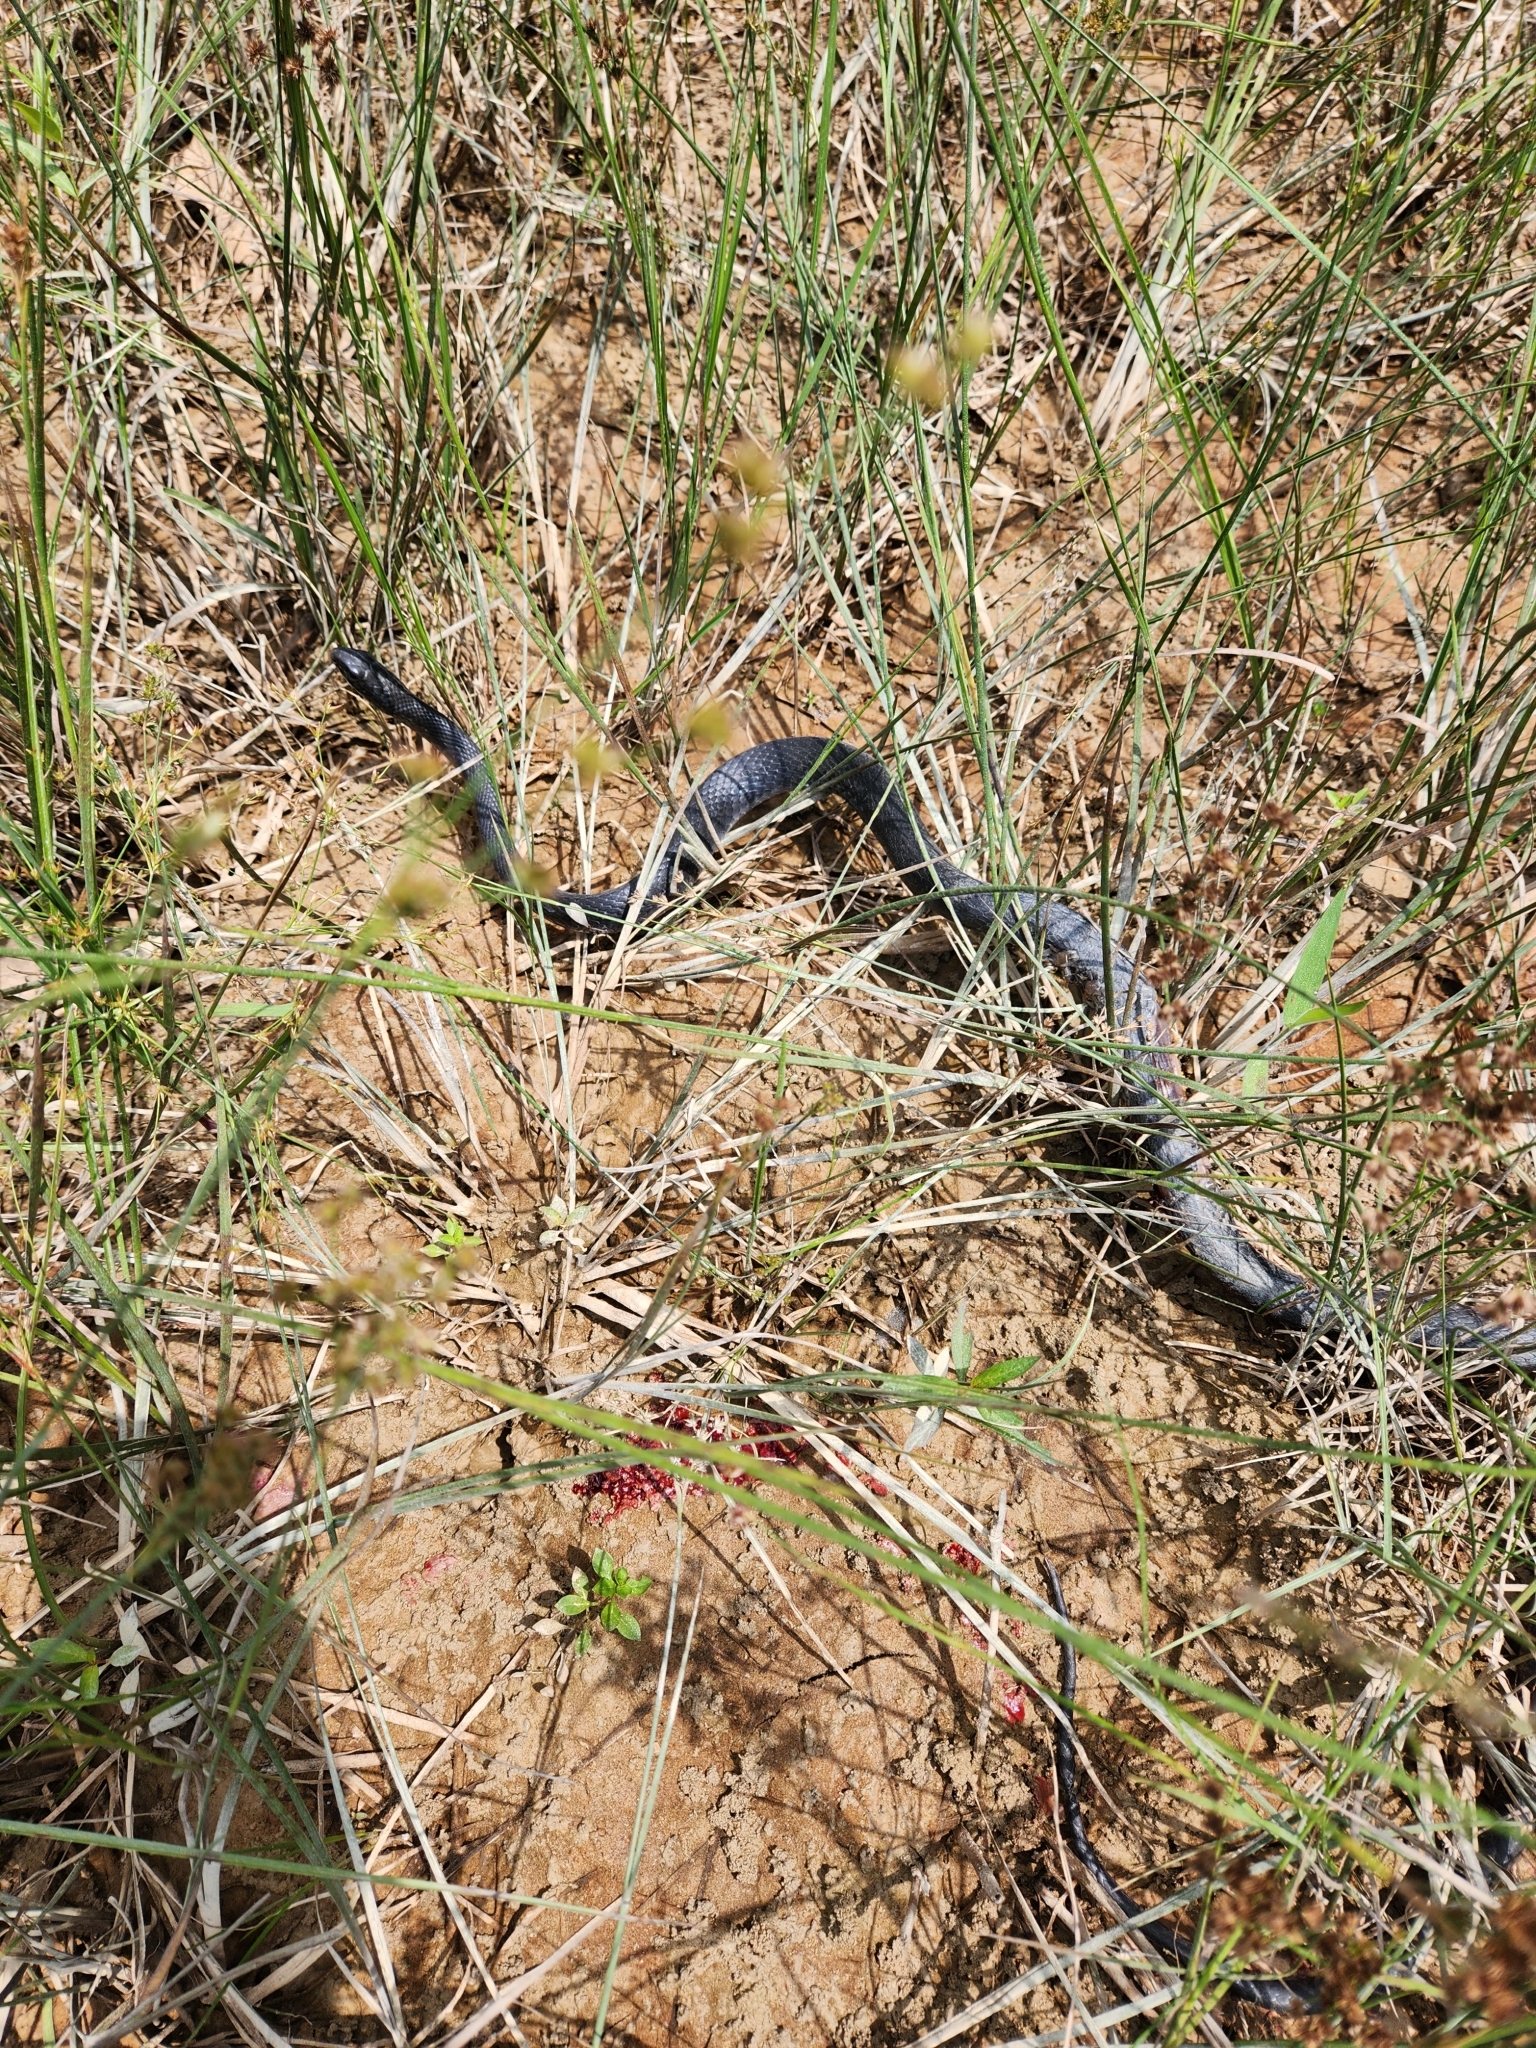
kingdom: Animalia
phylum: Chordata
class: Squamata
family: Colubridae
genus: Coluber
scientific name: Coluber constrictor
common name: Eastern racer
